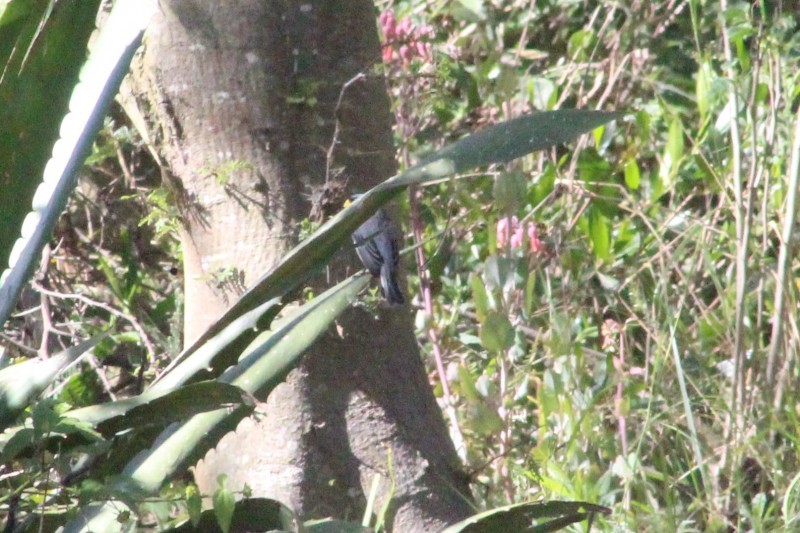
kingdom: Animalia
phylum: Chordata
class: Aves
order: Passeriformes
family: Thraupidae
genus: Catamenia
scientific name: Catamenia analis
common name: Band-tailed seedeater
